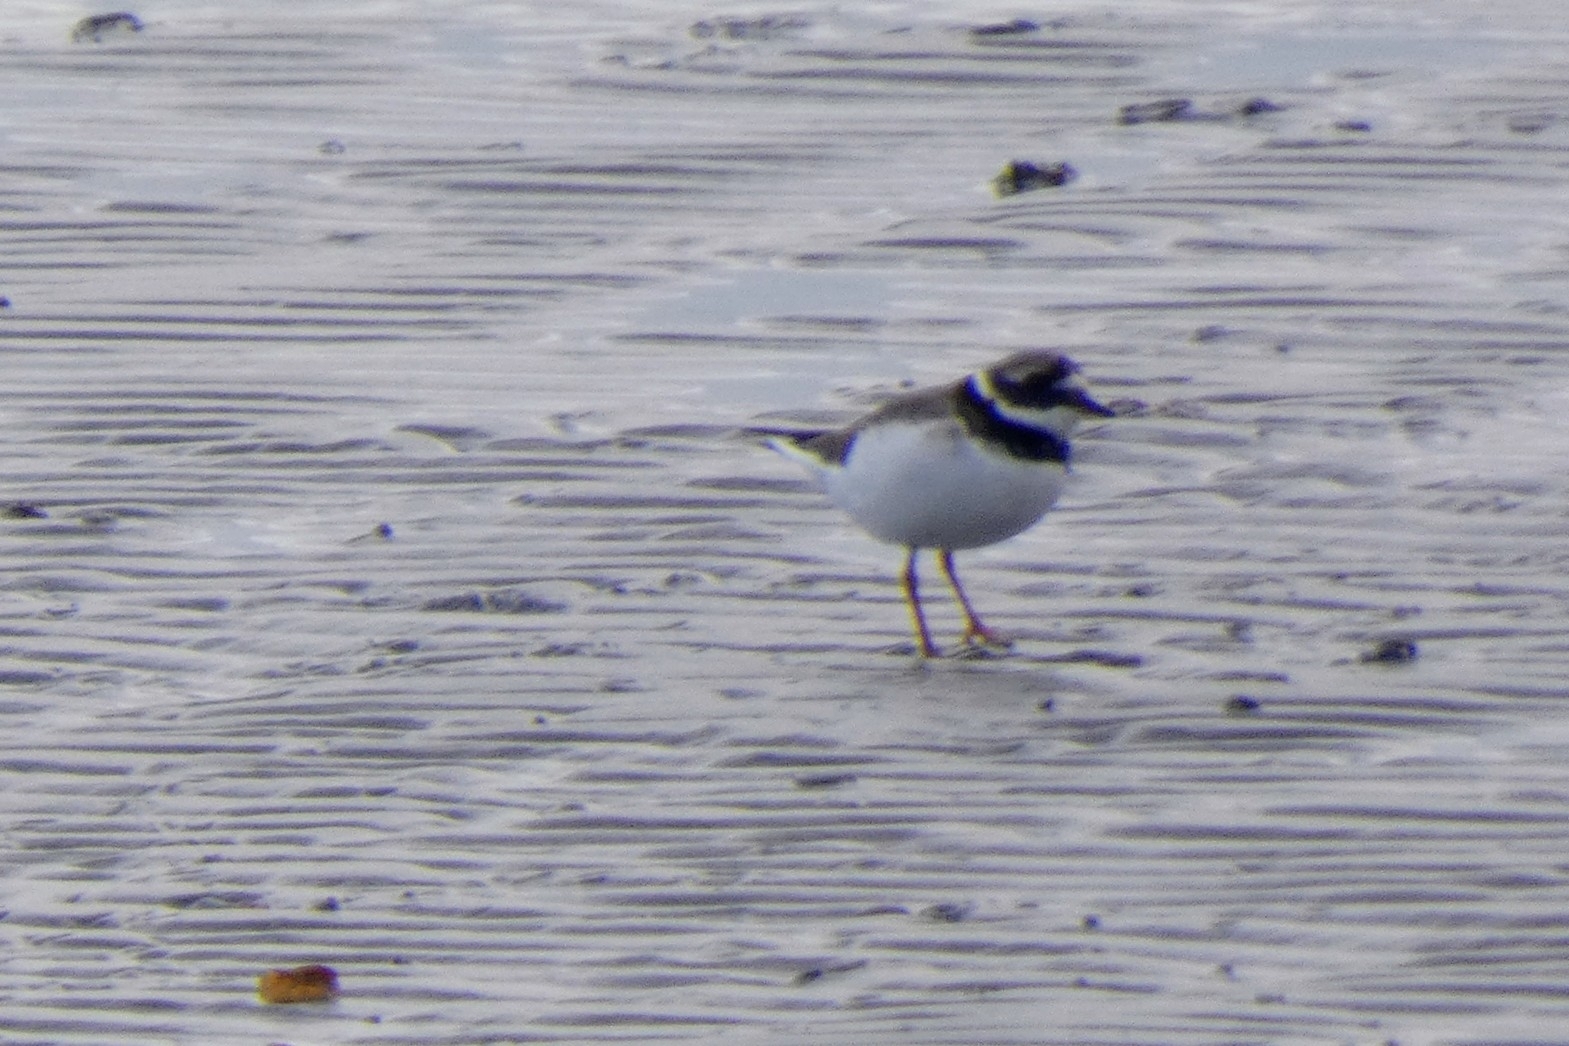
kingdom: Animalia
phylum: Chordata
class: Aves
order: Charadriiformes
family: Charadriidae
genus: Charadrius
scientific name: Charadrius hiaticula
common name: Common ringed plover
